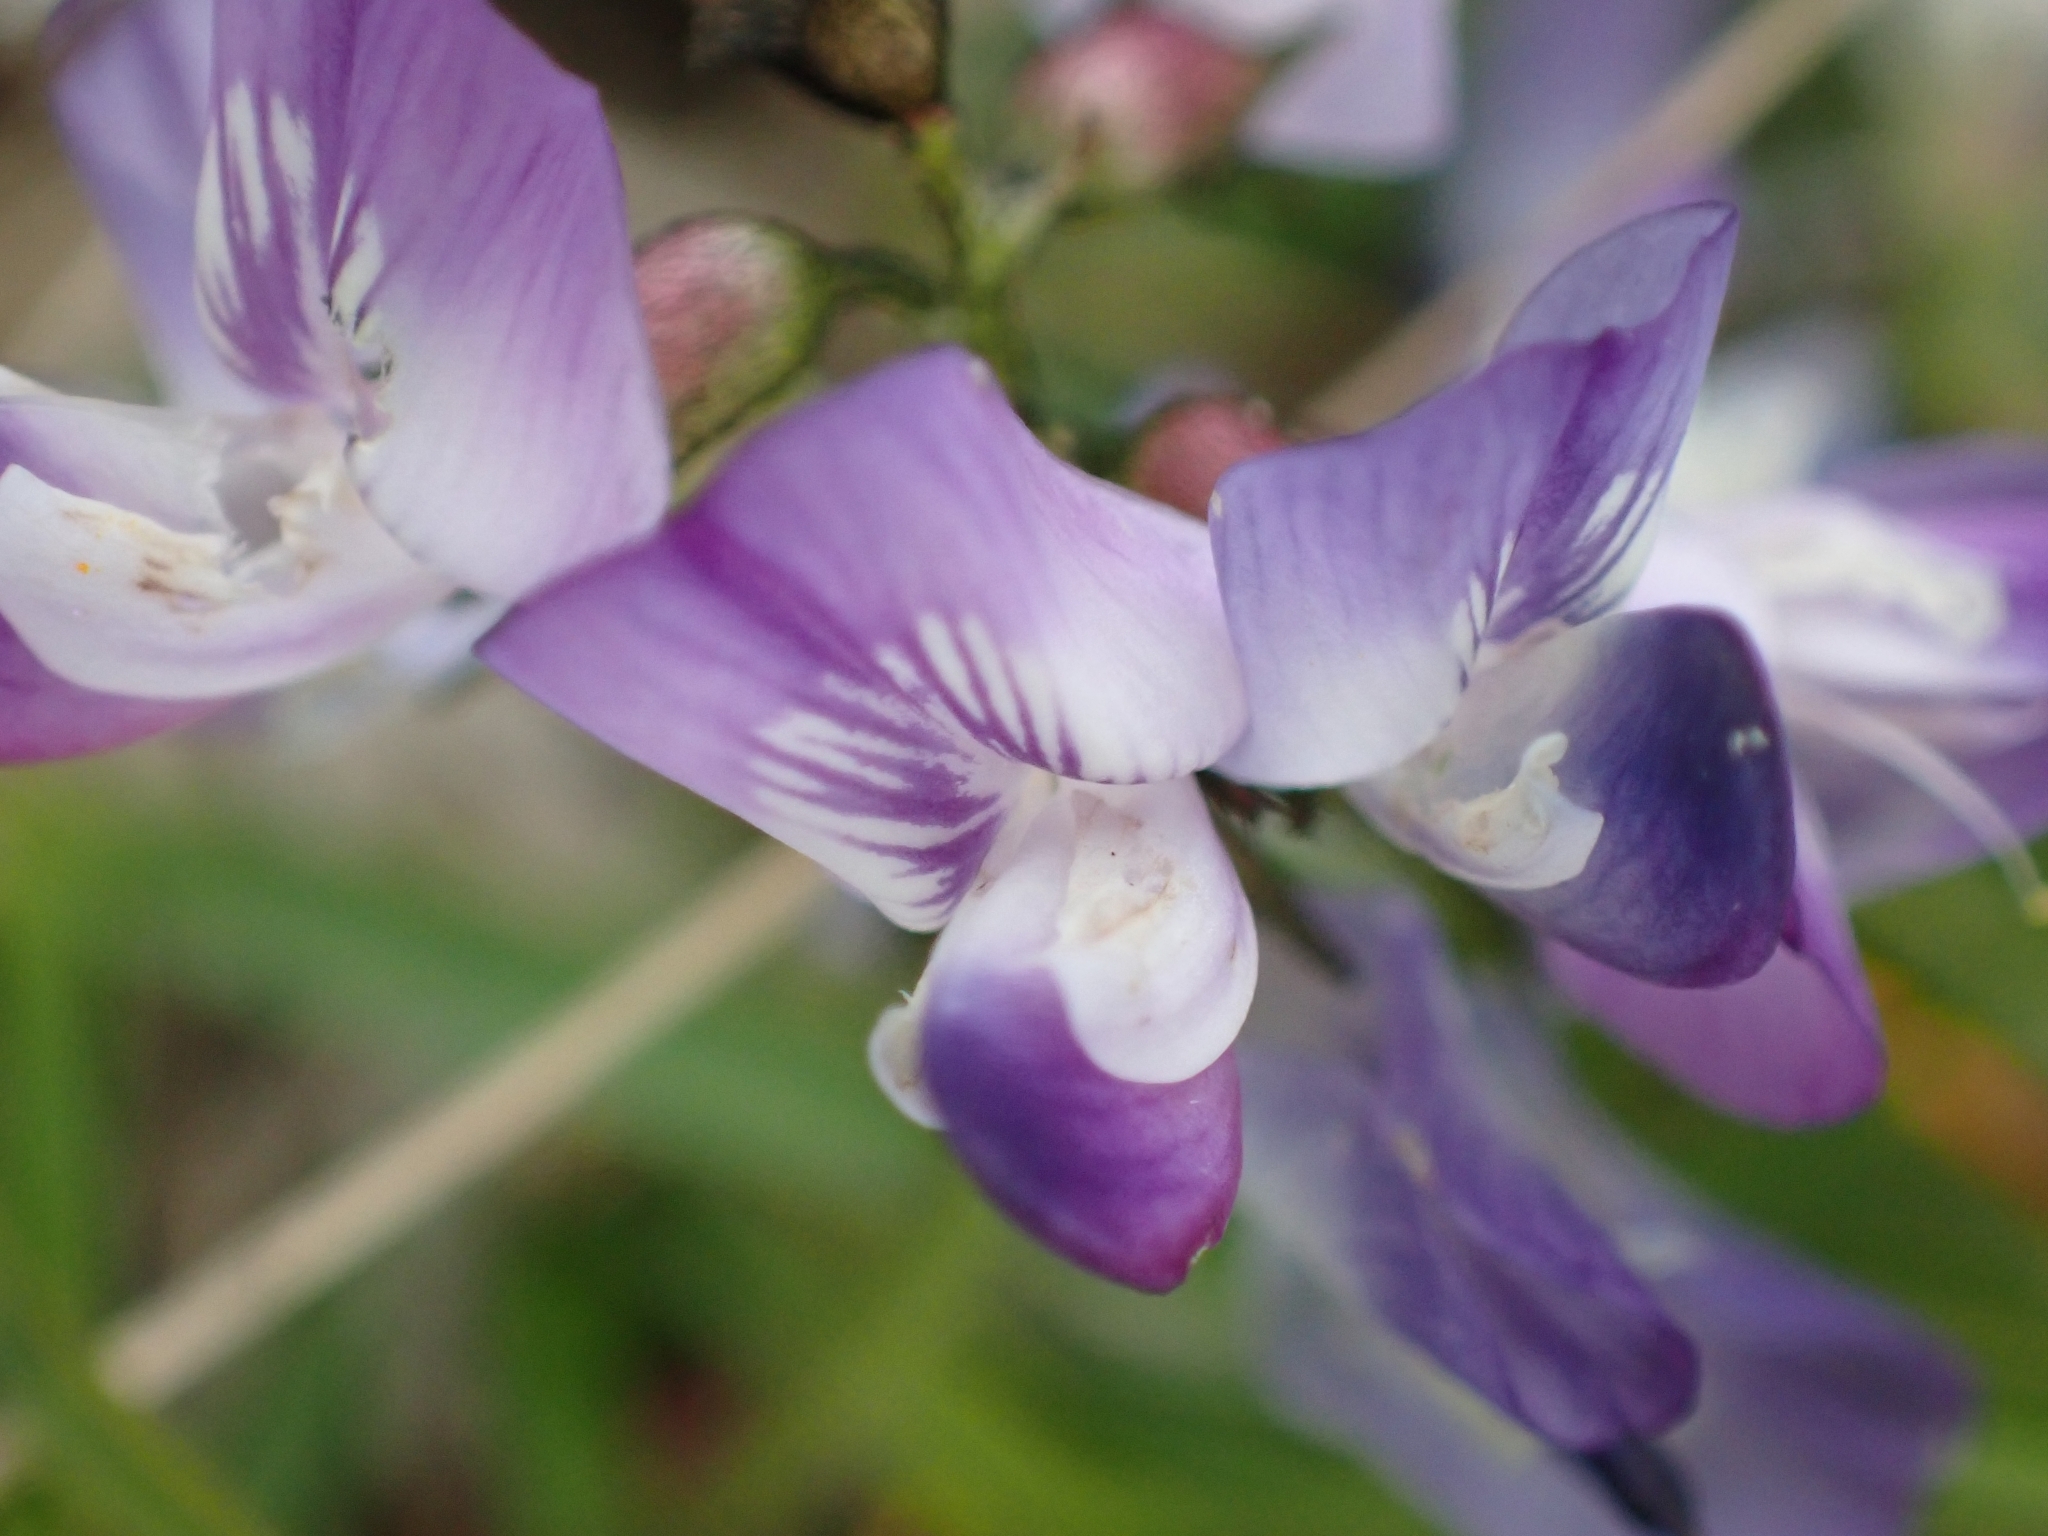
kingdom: Plantae
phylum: Tracheophyta
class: Magnoliopsida
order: Fabales
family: Fabaceae
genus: Astragalus
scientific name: Astragalus alpinus
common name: Alpine milk-vetch
